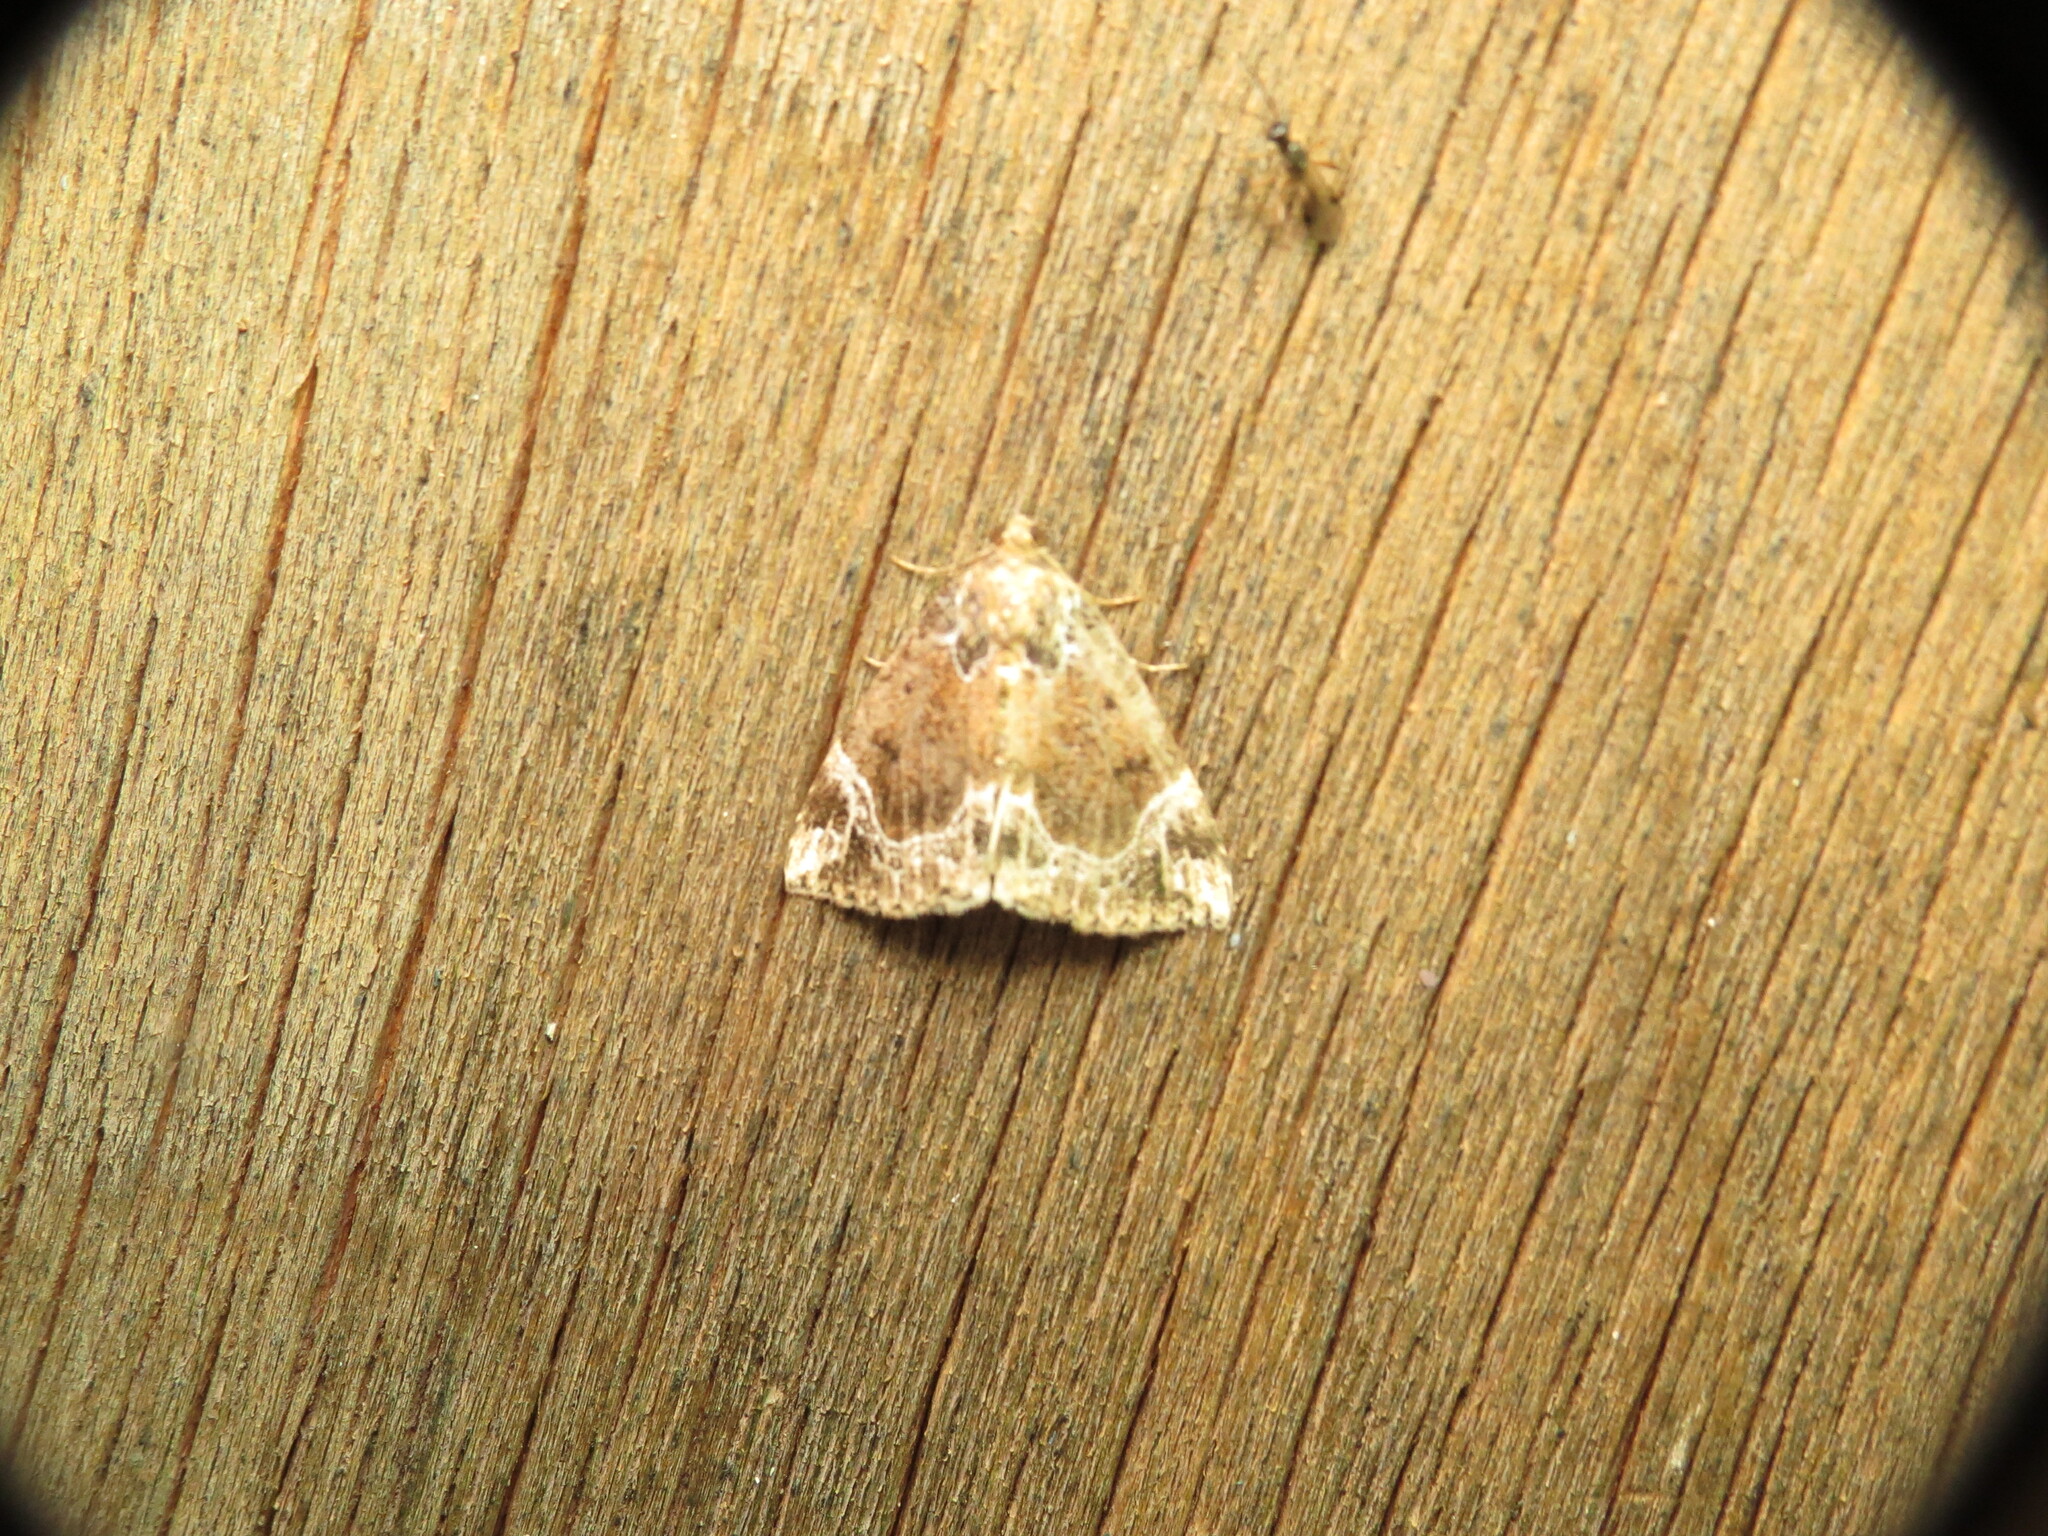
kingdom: Animalia
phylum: Arthropoda
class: Insecta
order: Lepidoptera
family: Erebidae
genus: Hypena
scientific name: Hypena abalienalis
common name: White-lined snout
